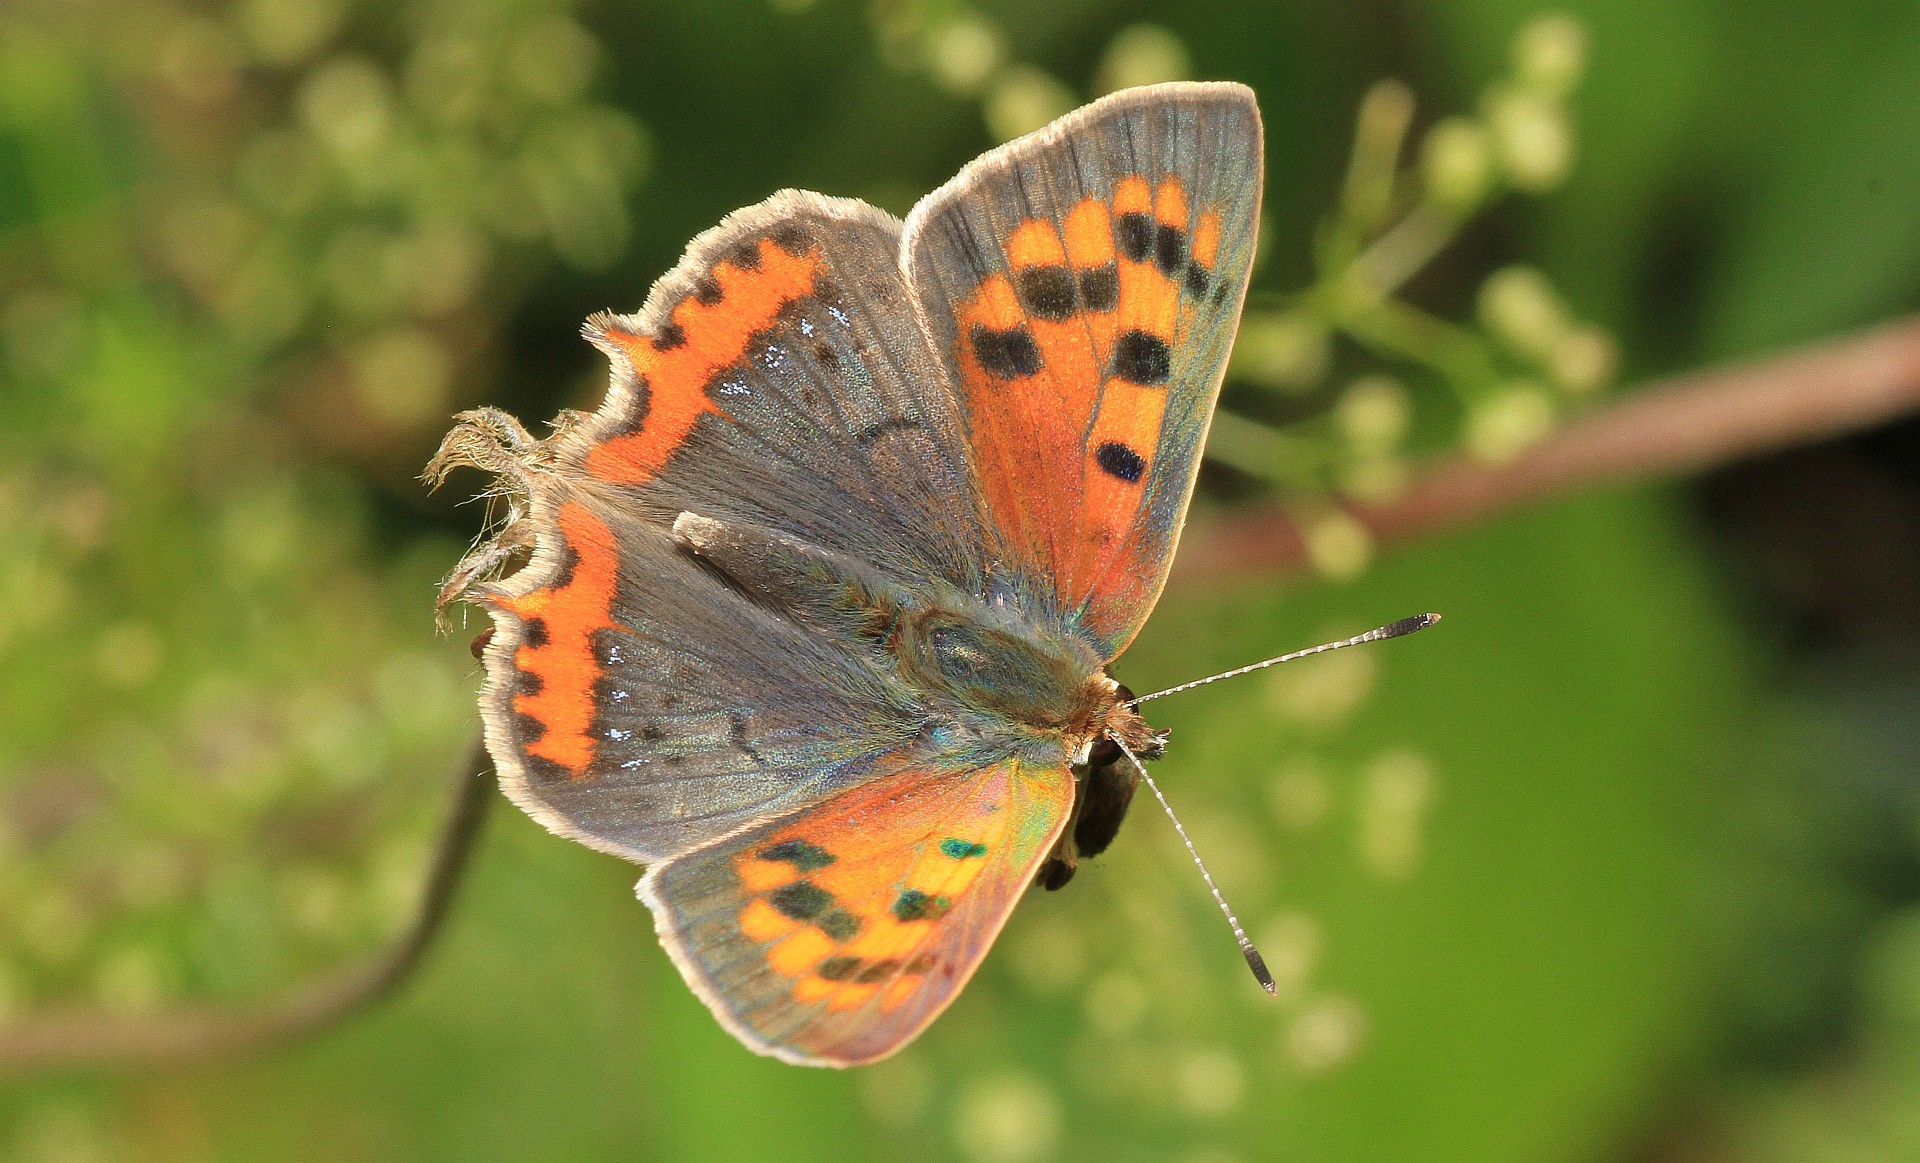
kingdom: Animalia
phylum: Arthropoda
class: Insecta
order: Lepidoptera
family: Lycaenidae
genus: Lycaena
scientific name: Lycaena phlaeas
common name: Small copper
